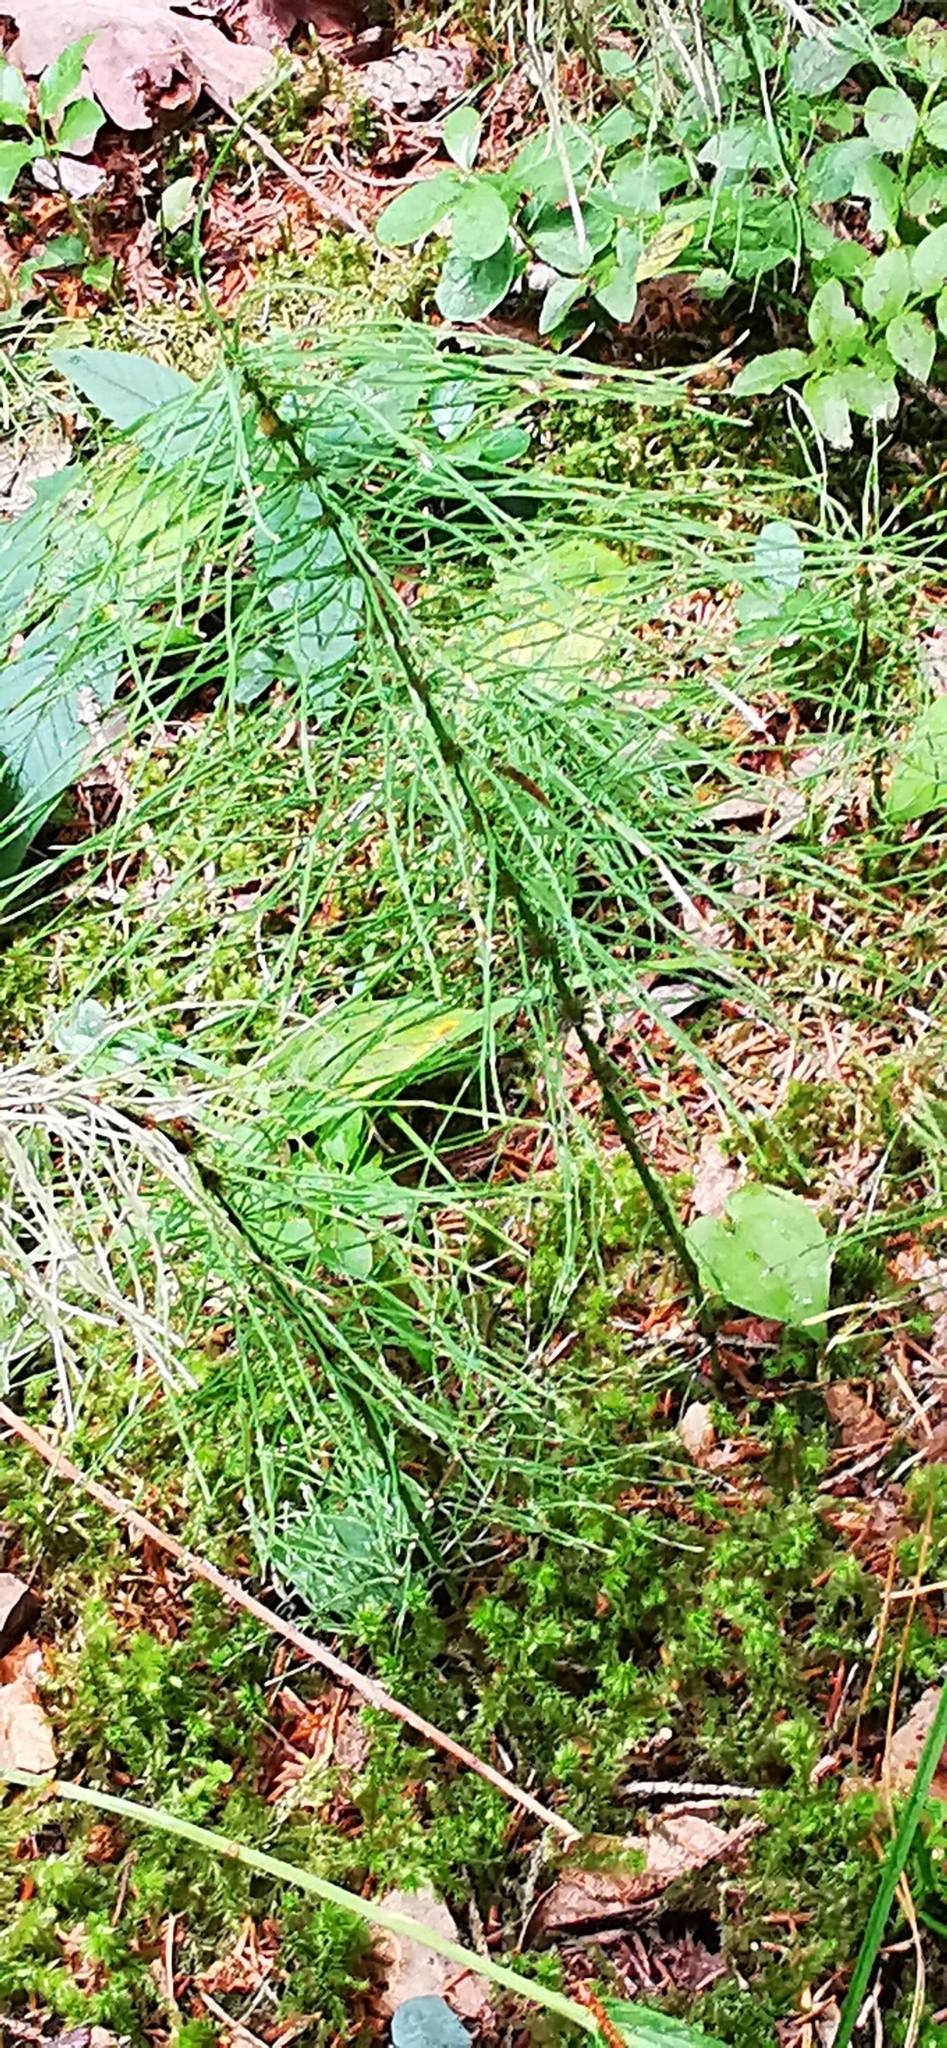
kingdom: Plantae
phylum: Tracheophyta
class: Polypodiopsida
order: Equisetales
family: Equisetaceae
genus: Equisetum
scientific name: Equisetum pratense
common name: Meadow horsetail
